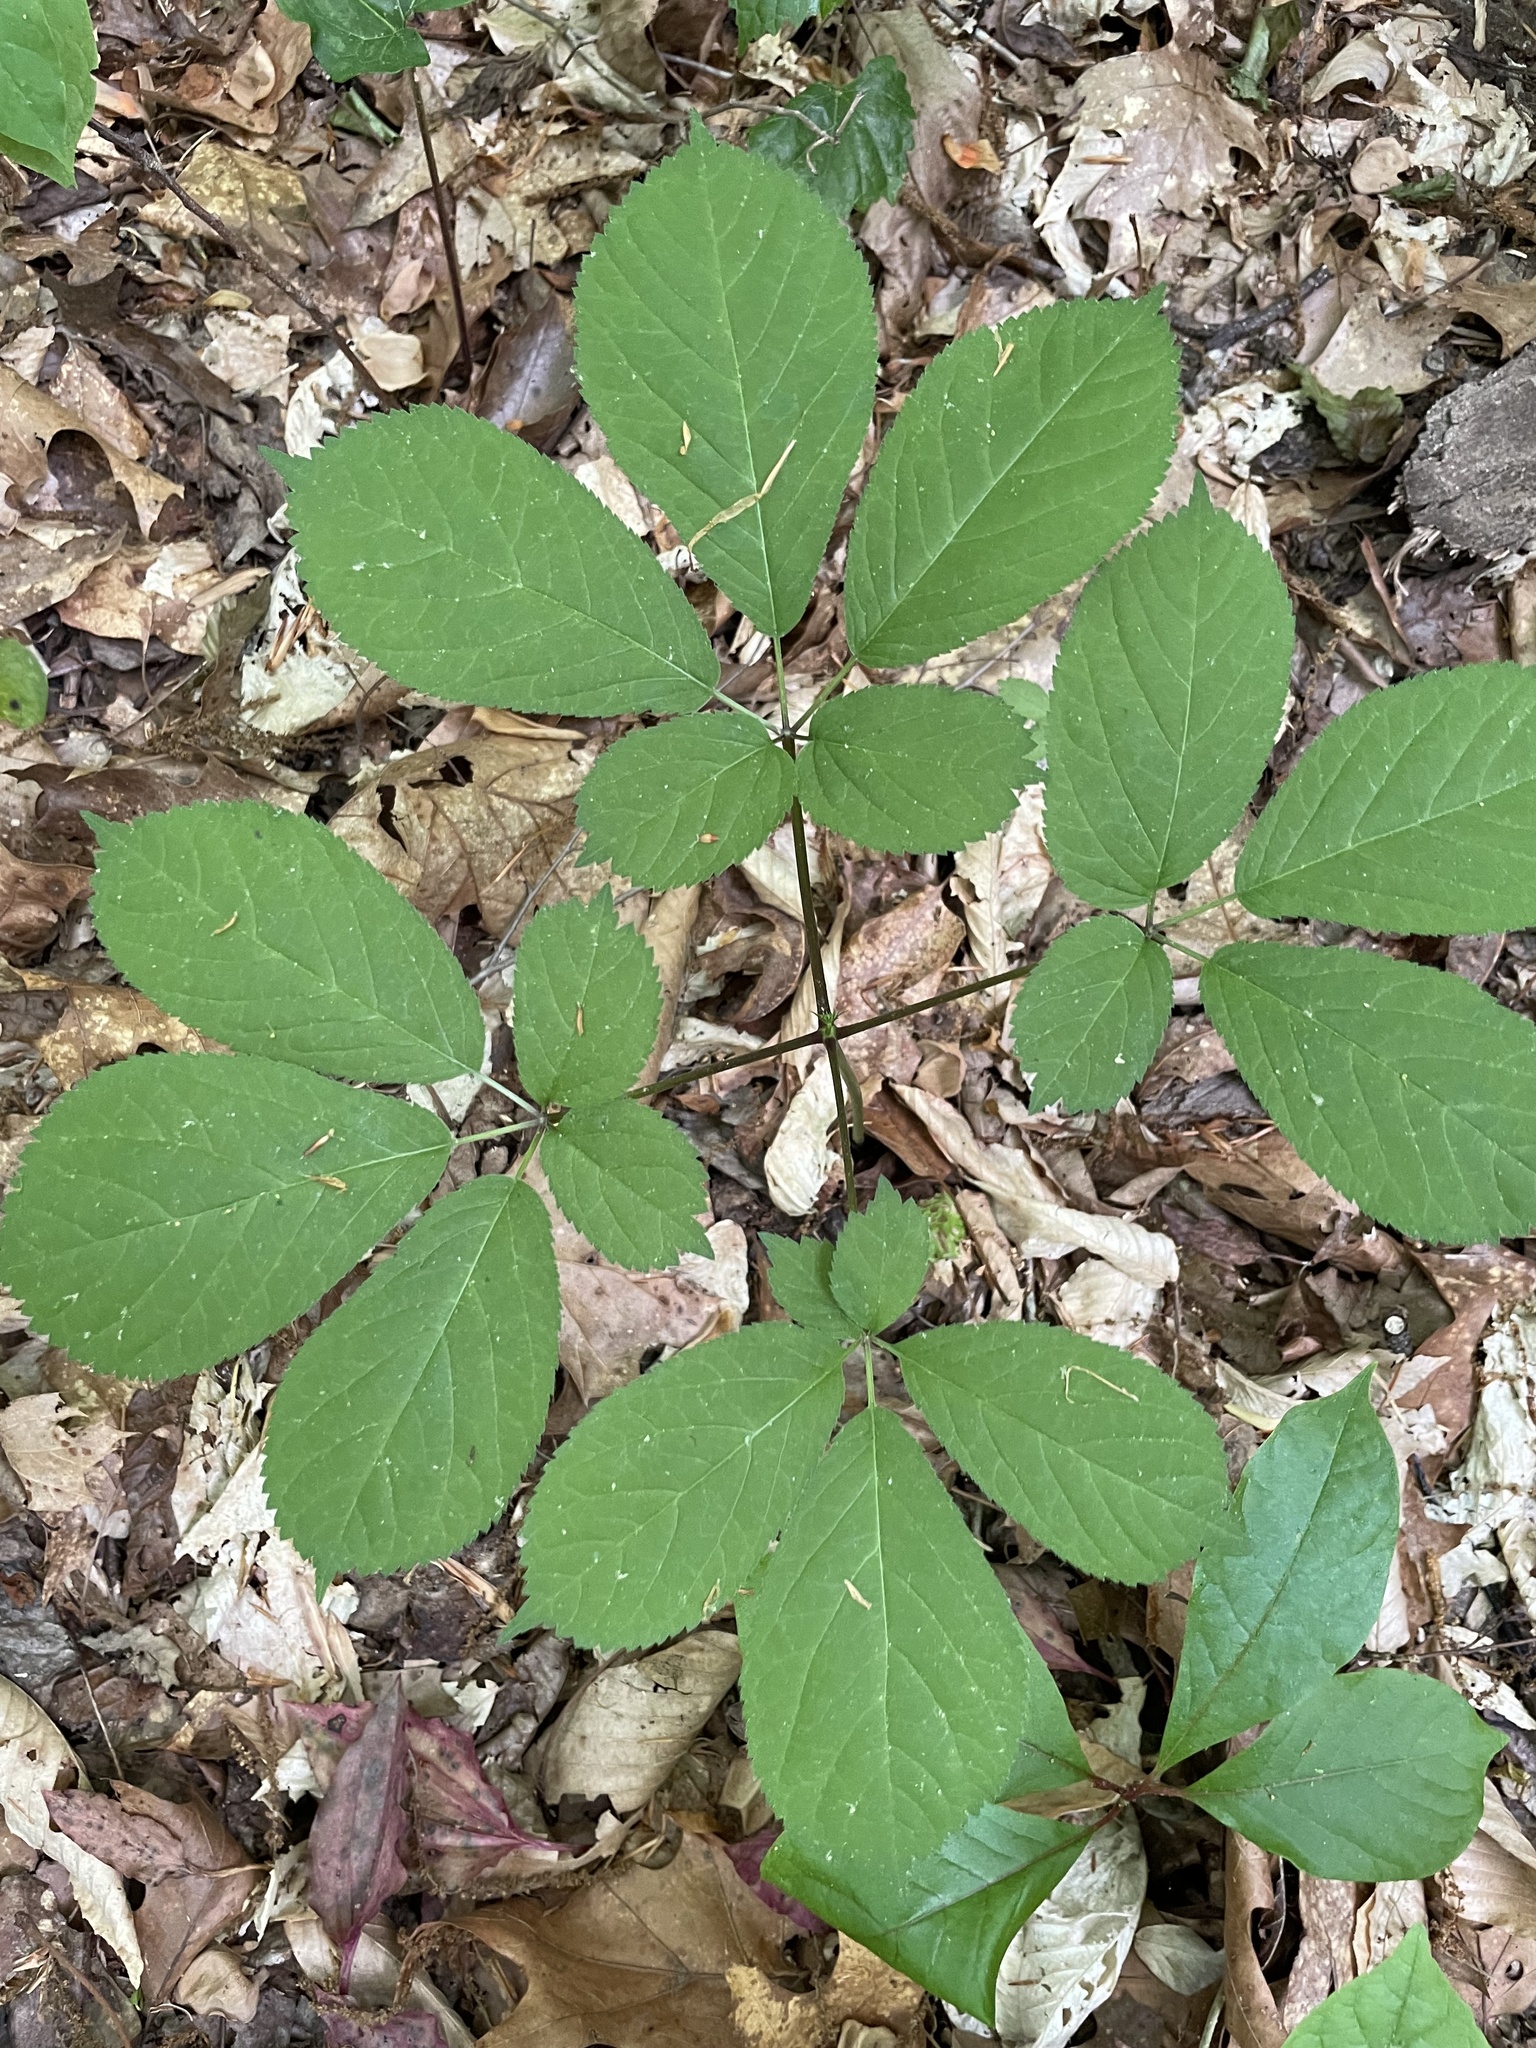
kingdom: Plantae
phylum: Tracheophyta
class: Magnoliopsida
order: Apiales
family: Araliaceae
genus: Panax
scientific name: Panax quinquefolius
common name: American ginseng
